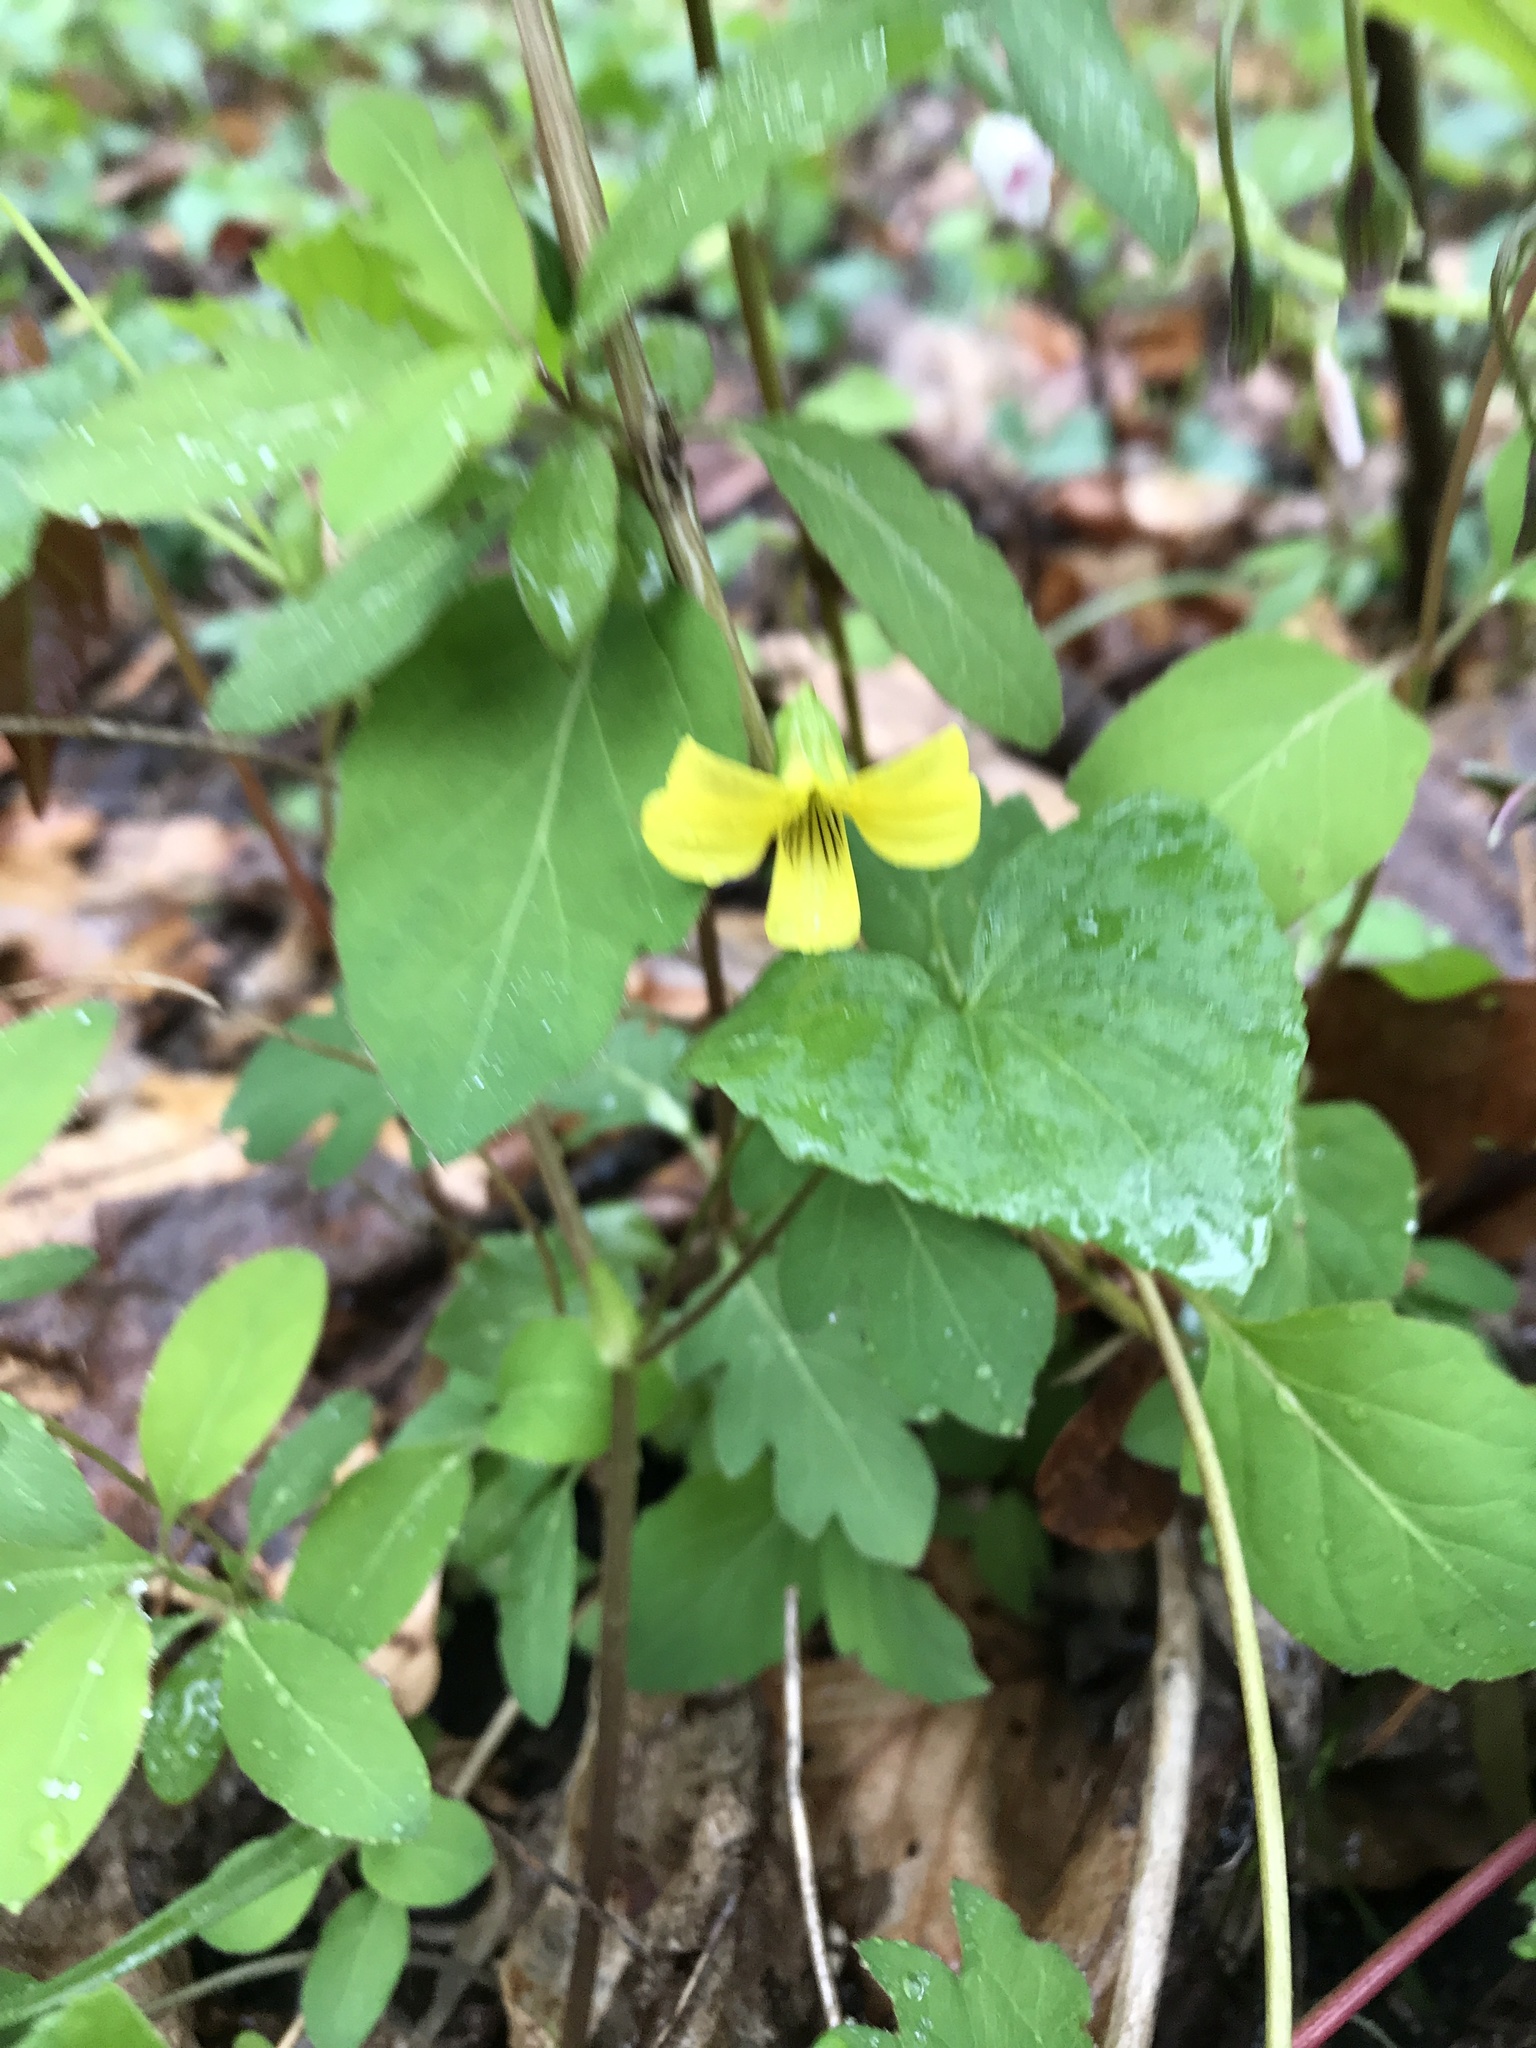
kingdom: Plantae
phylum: Tracheophyta
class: Magnoliopsida
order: Malpighiales
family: Violaceae
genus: Viola
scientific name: Viola eriocarpa
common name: Smooth yellow violet
